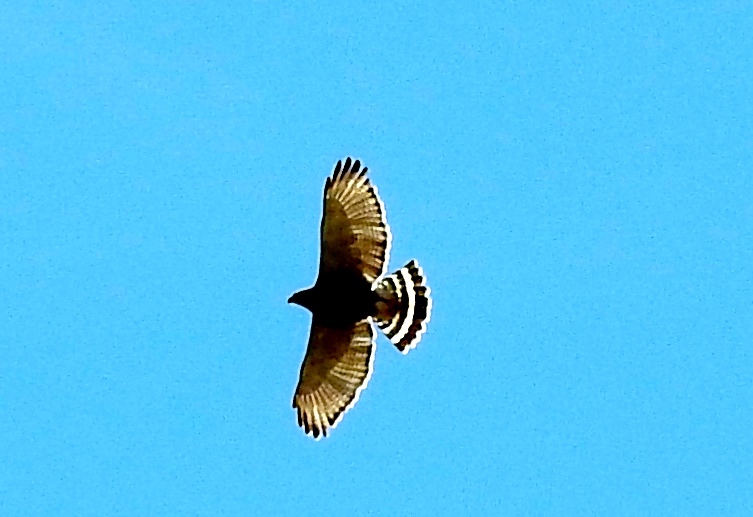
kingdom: Animalia
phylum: Chordata
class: Aves
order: Accipitriformes
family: Accipitridae
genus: Buteo
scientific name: Buteo nitidus
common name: Grey-lined hawk
